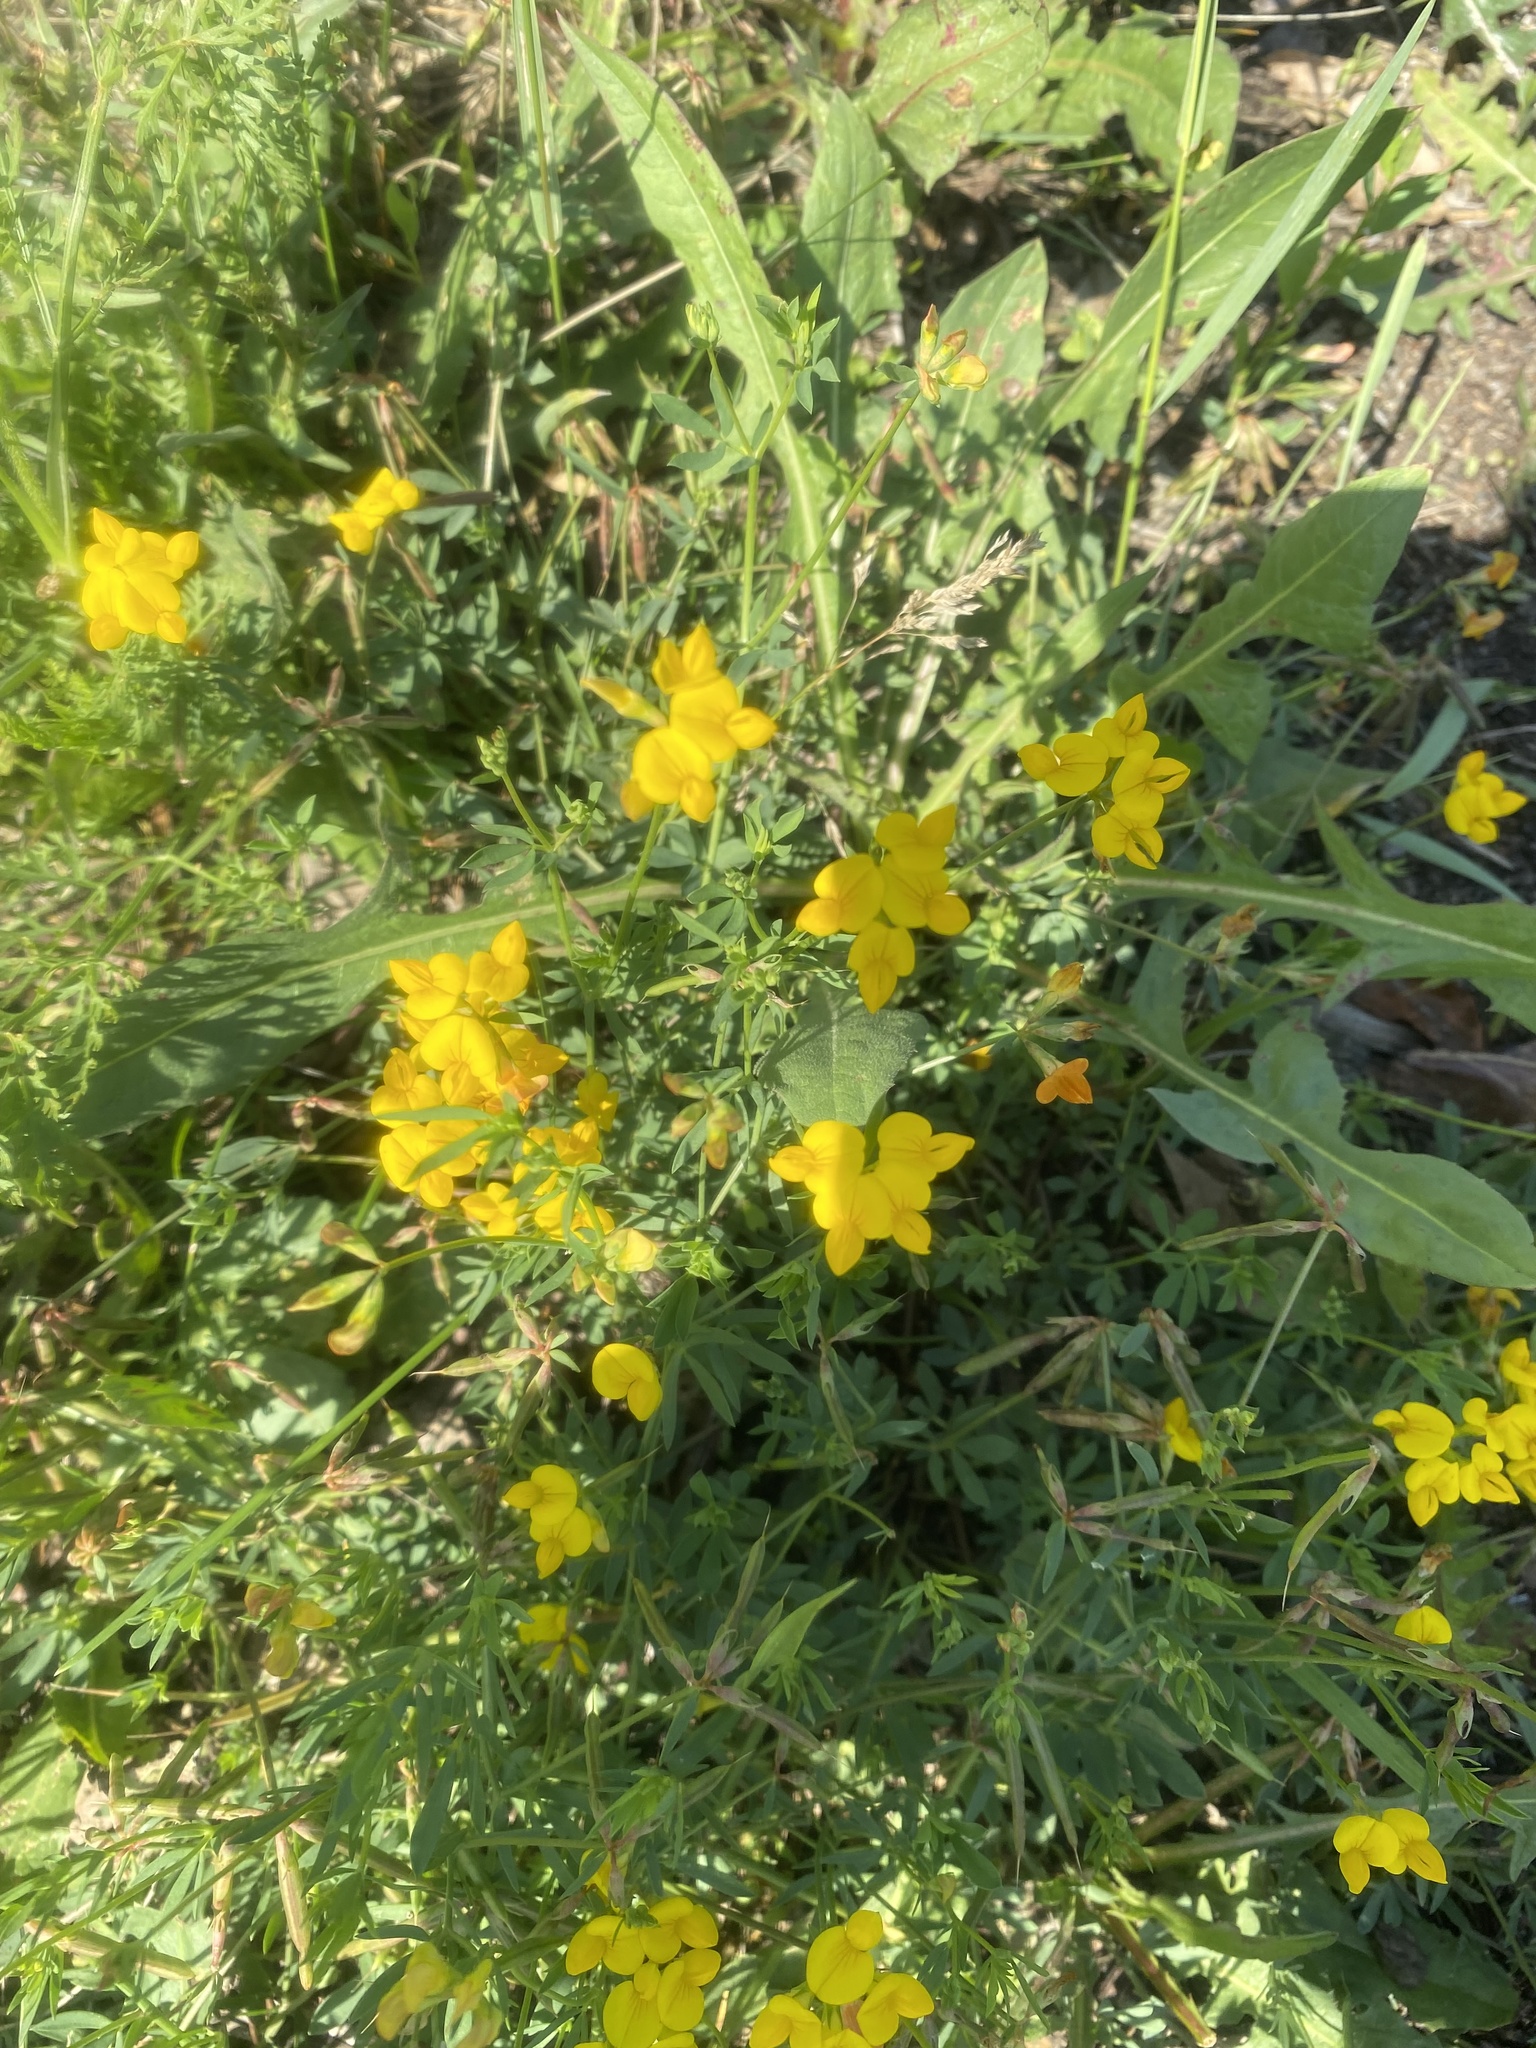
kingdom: Plantae
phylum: Tracheophyta
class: Magnoliopsida
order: Fabales
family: Fabaceae
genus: Lotus
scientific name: Lotus corniculatus
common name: Common bird's-foot-trefoil
